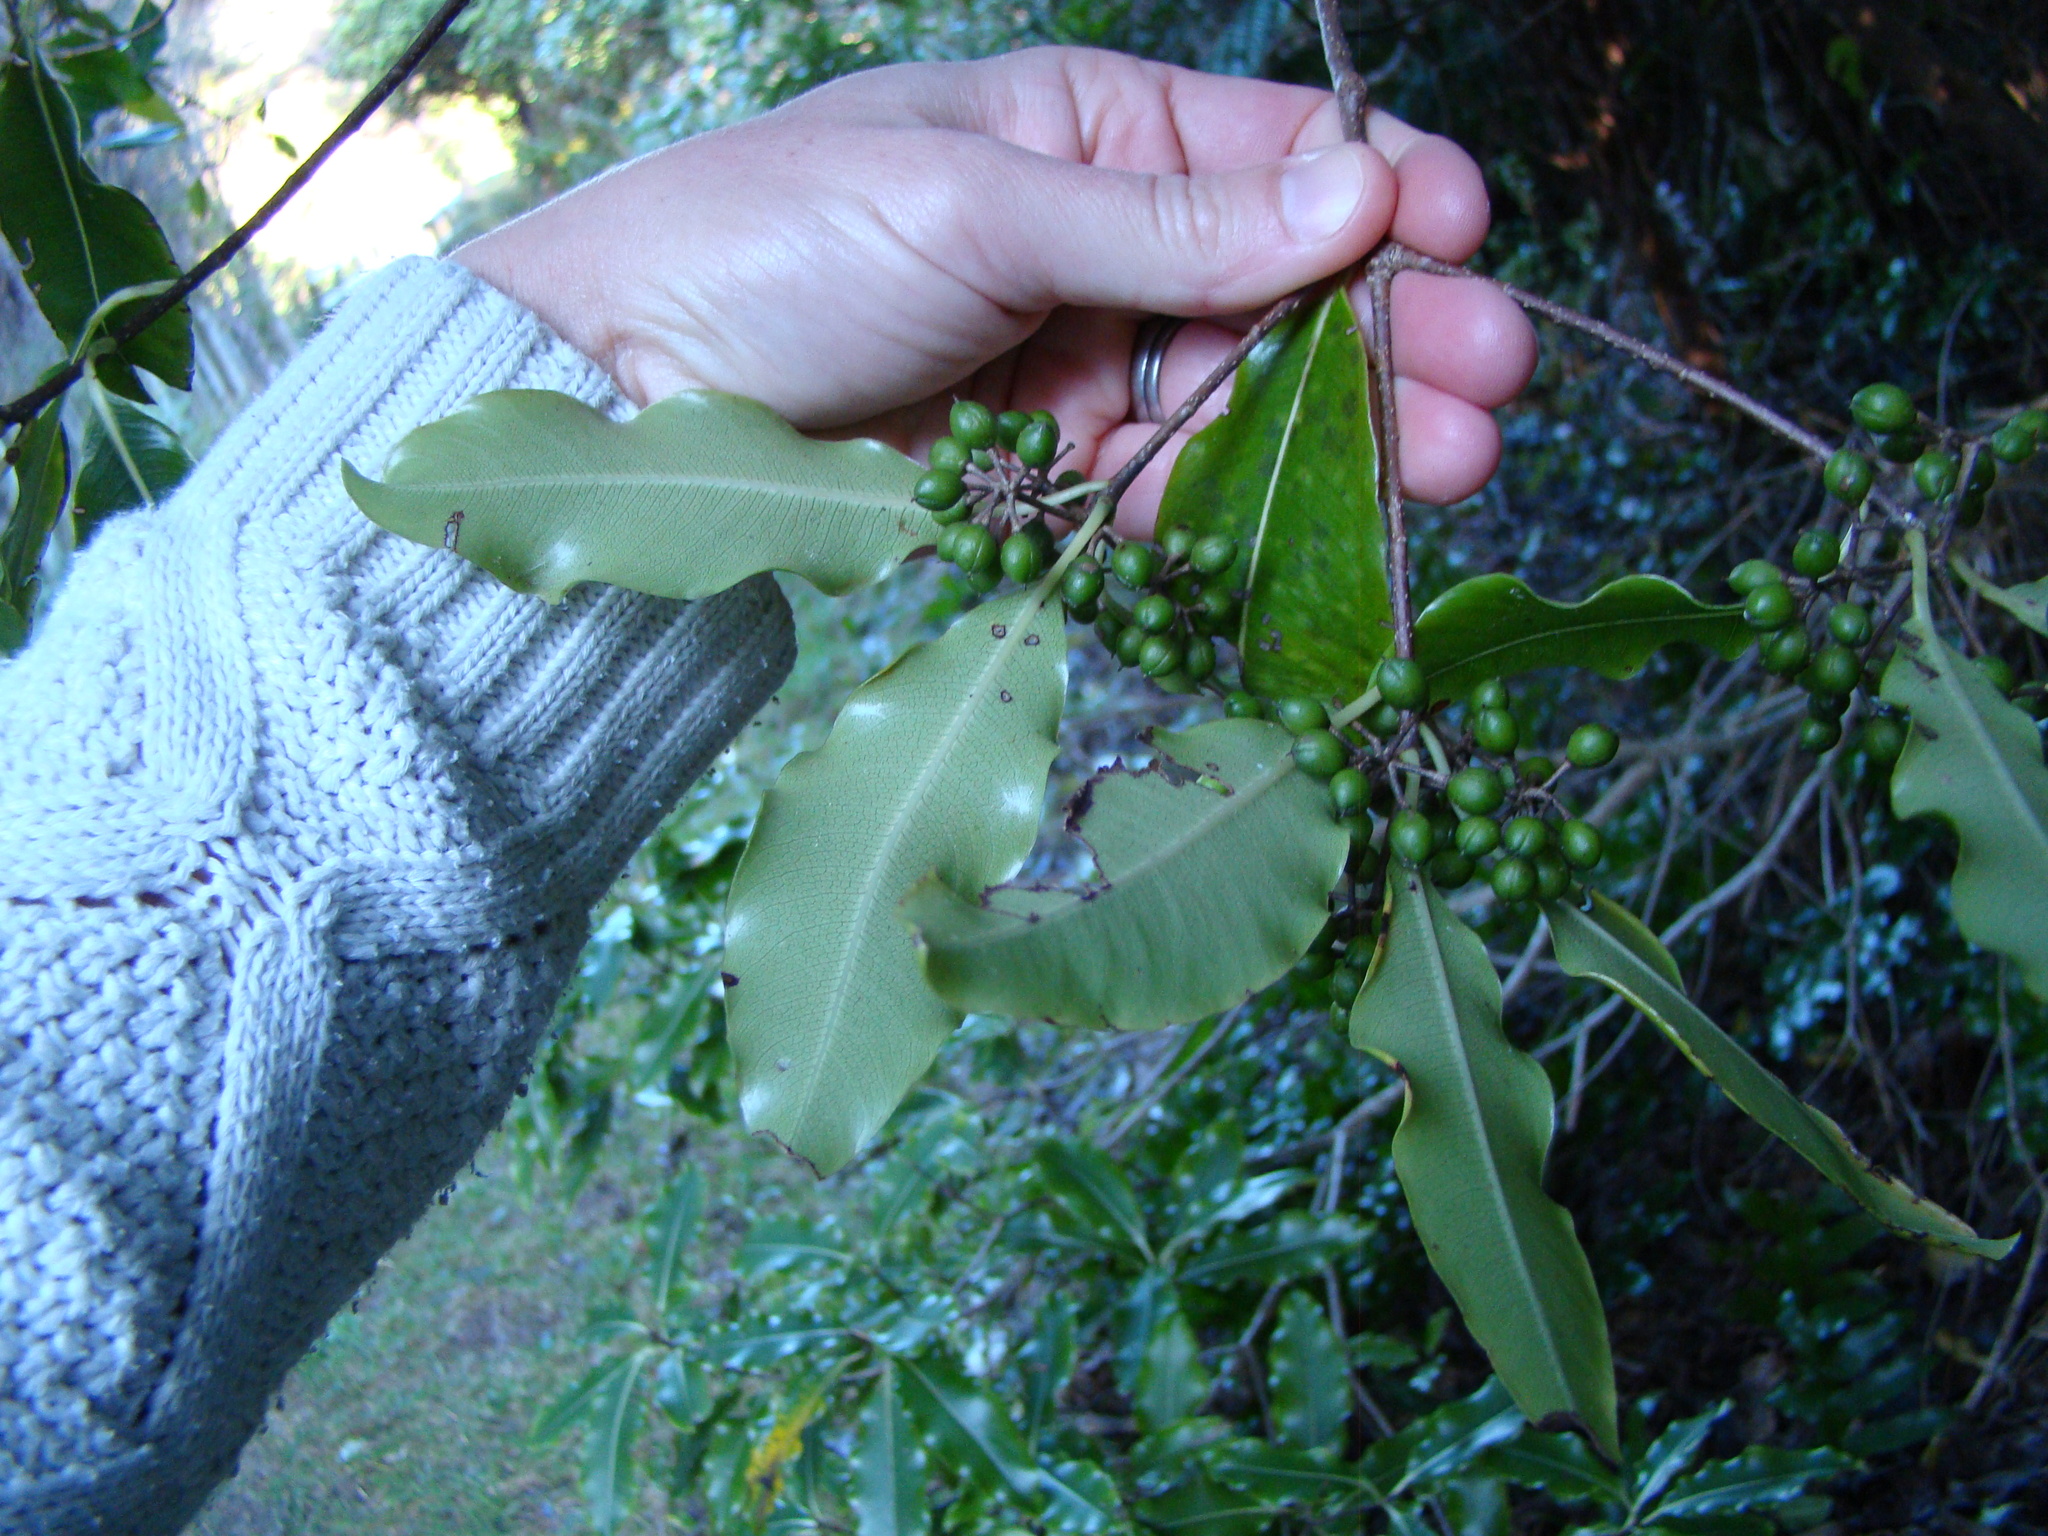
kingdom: Plantae
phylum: Tracheophyta
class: Magnoliopsida
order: Apiales
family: Pittosporaceae
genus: Pittosporum
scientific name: Pittosporum eugenioides
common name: Lemonwood
